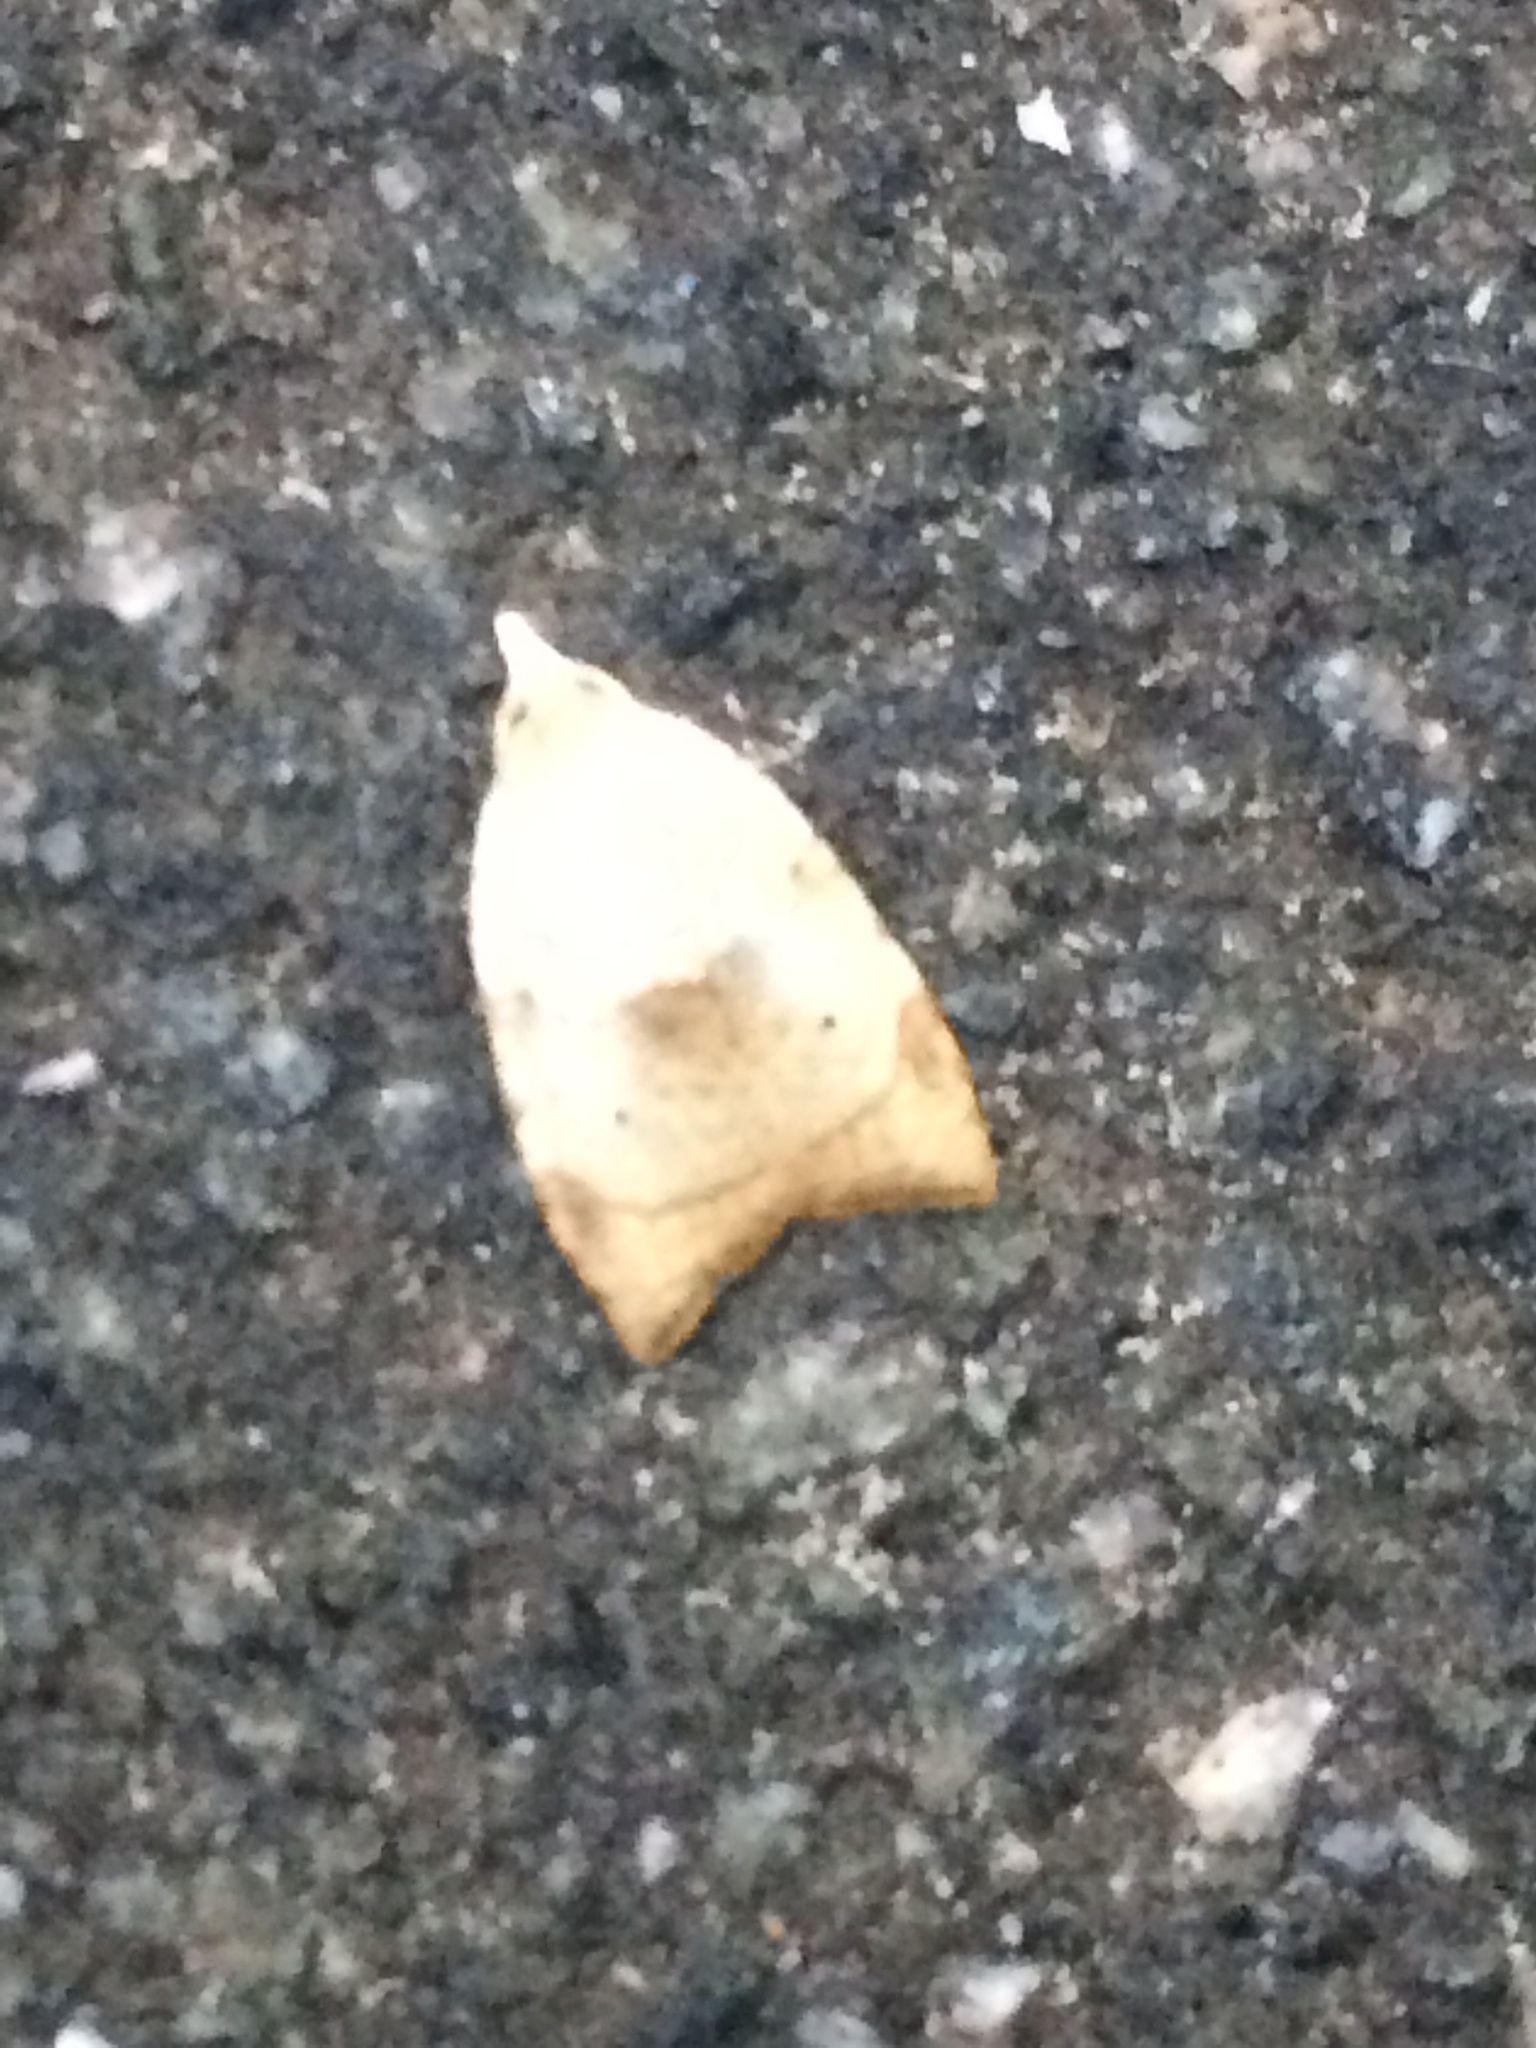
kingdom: Animalia
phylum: Arthropoda
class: Insecta
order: Lepidoptera
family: Tortricidae
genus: Coelostathma
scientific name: Coelostathma discopunctana
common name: Batman moth
